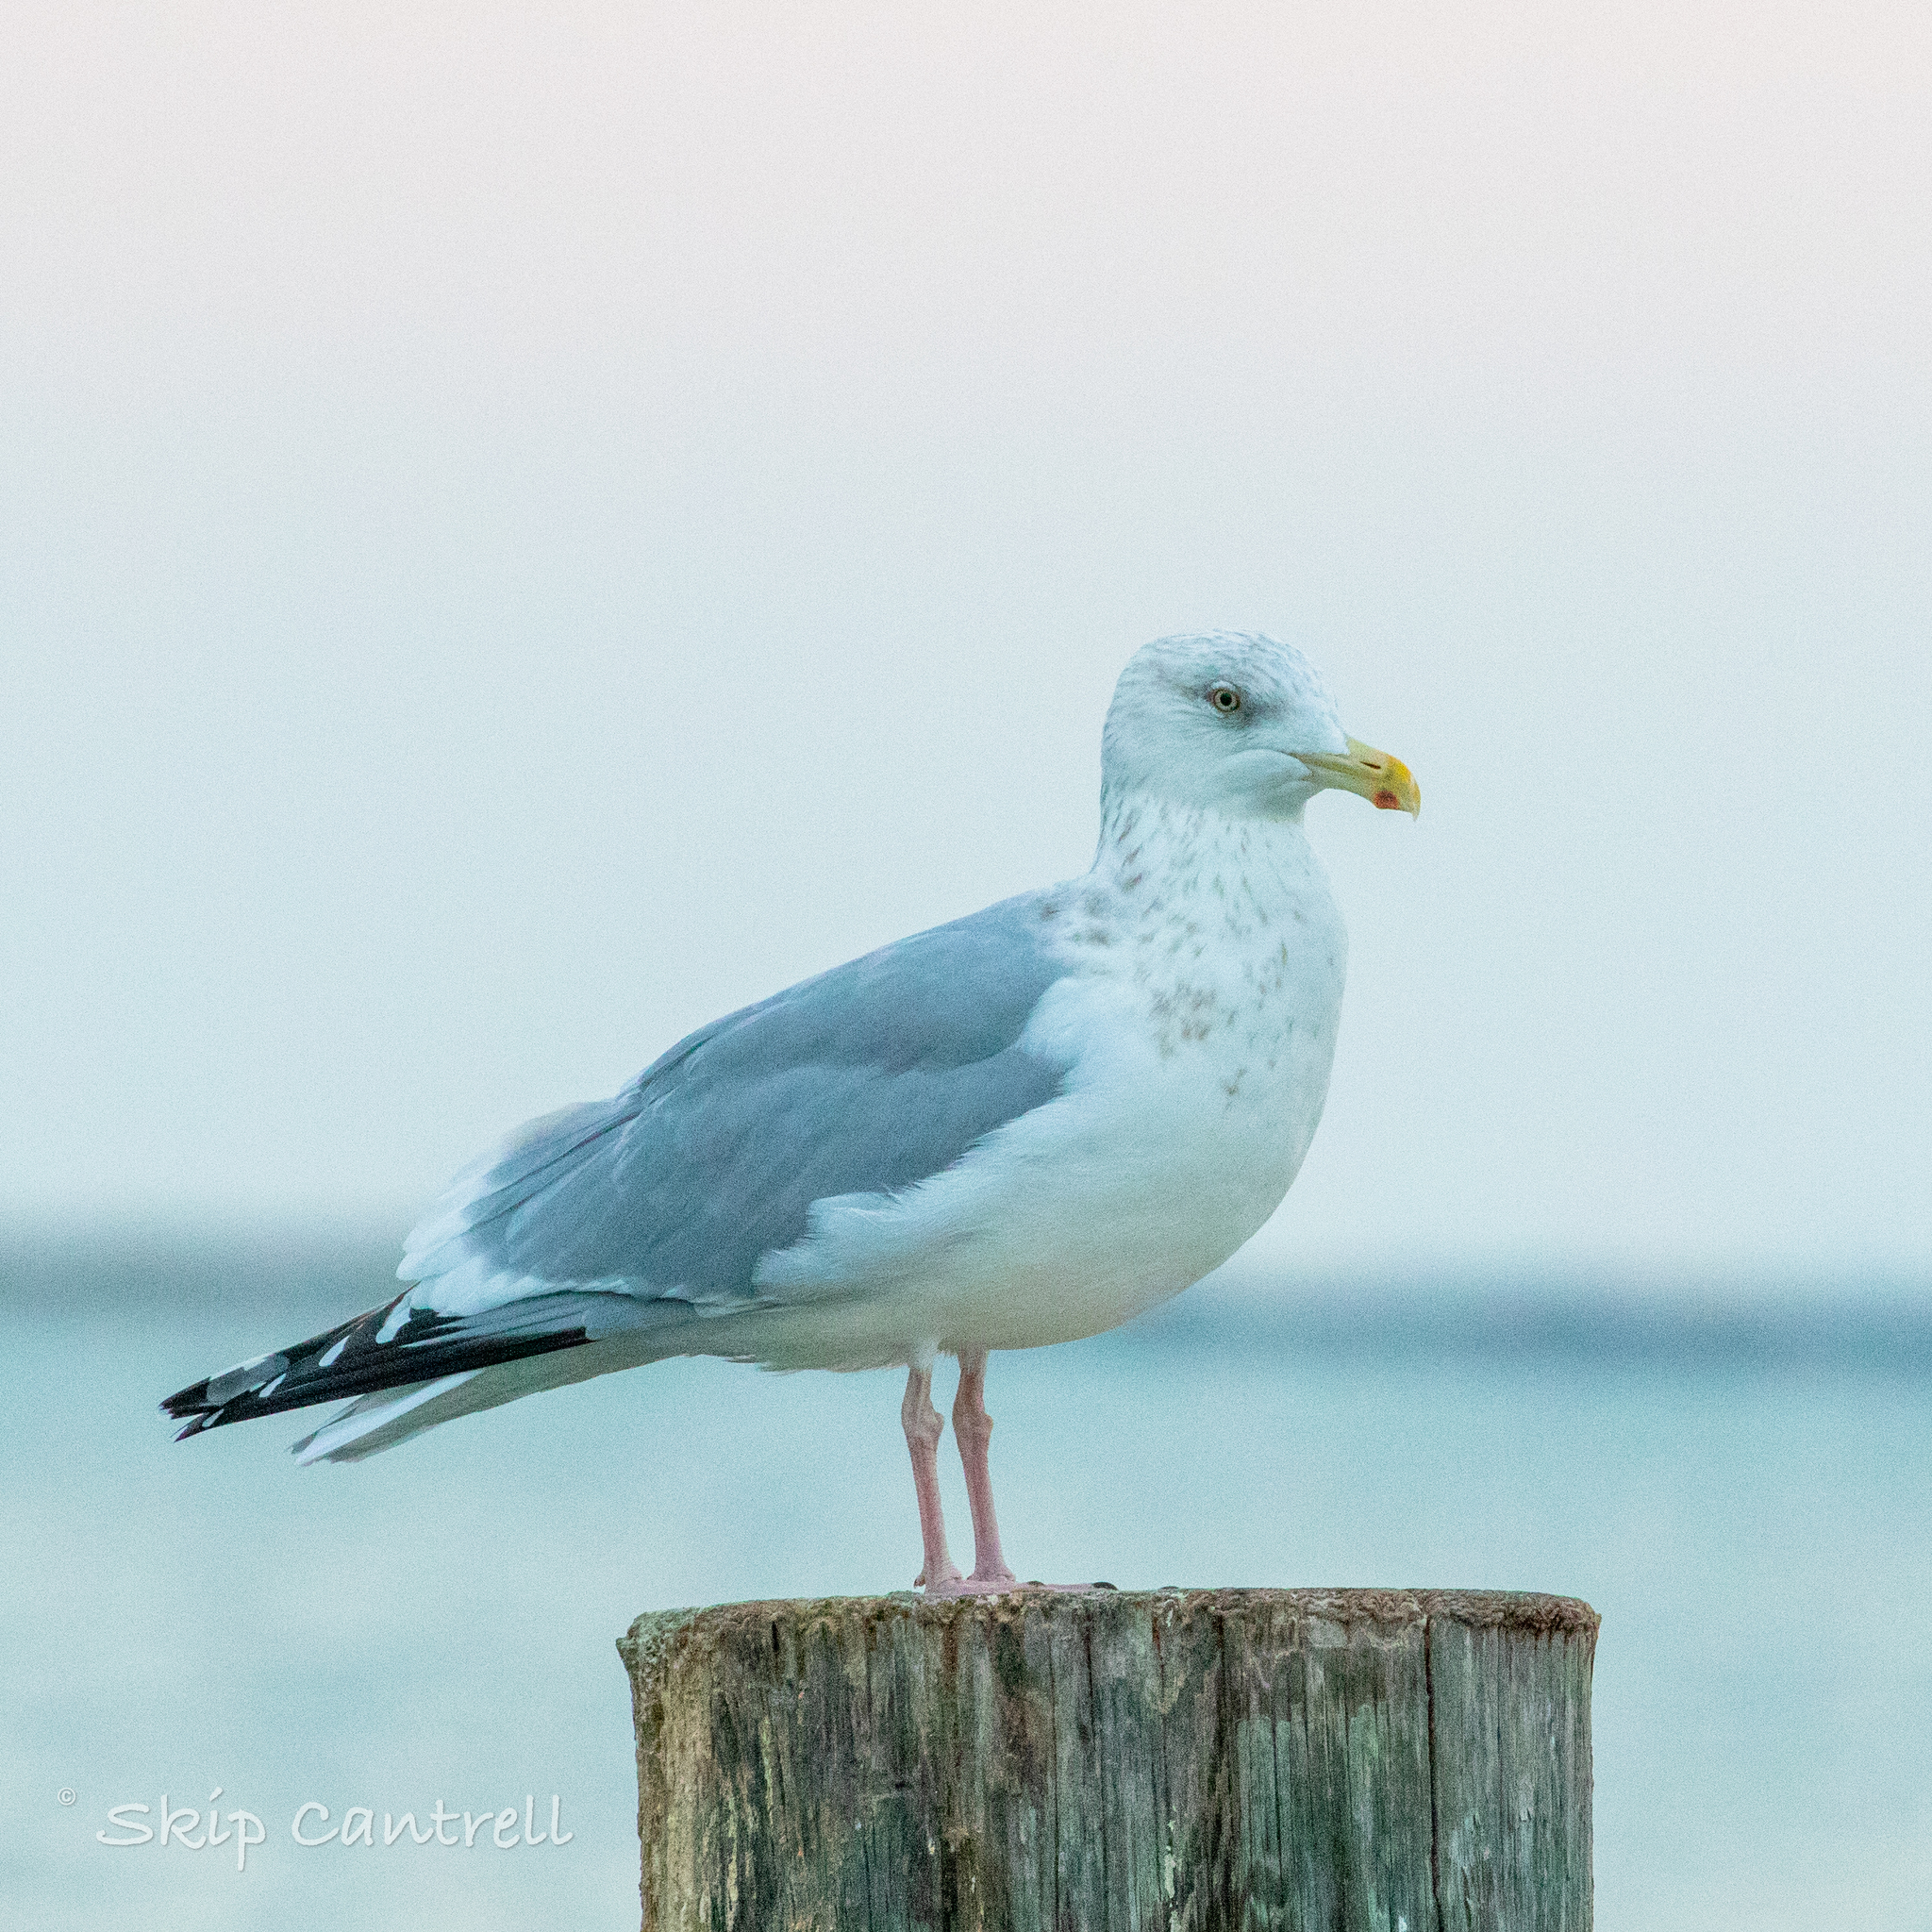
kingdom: Animalia
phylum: Chordata
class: Aves
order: Charadriiformes
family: Laridae
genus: Larus
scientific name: Larus argentatus
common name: Herring gull
